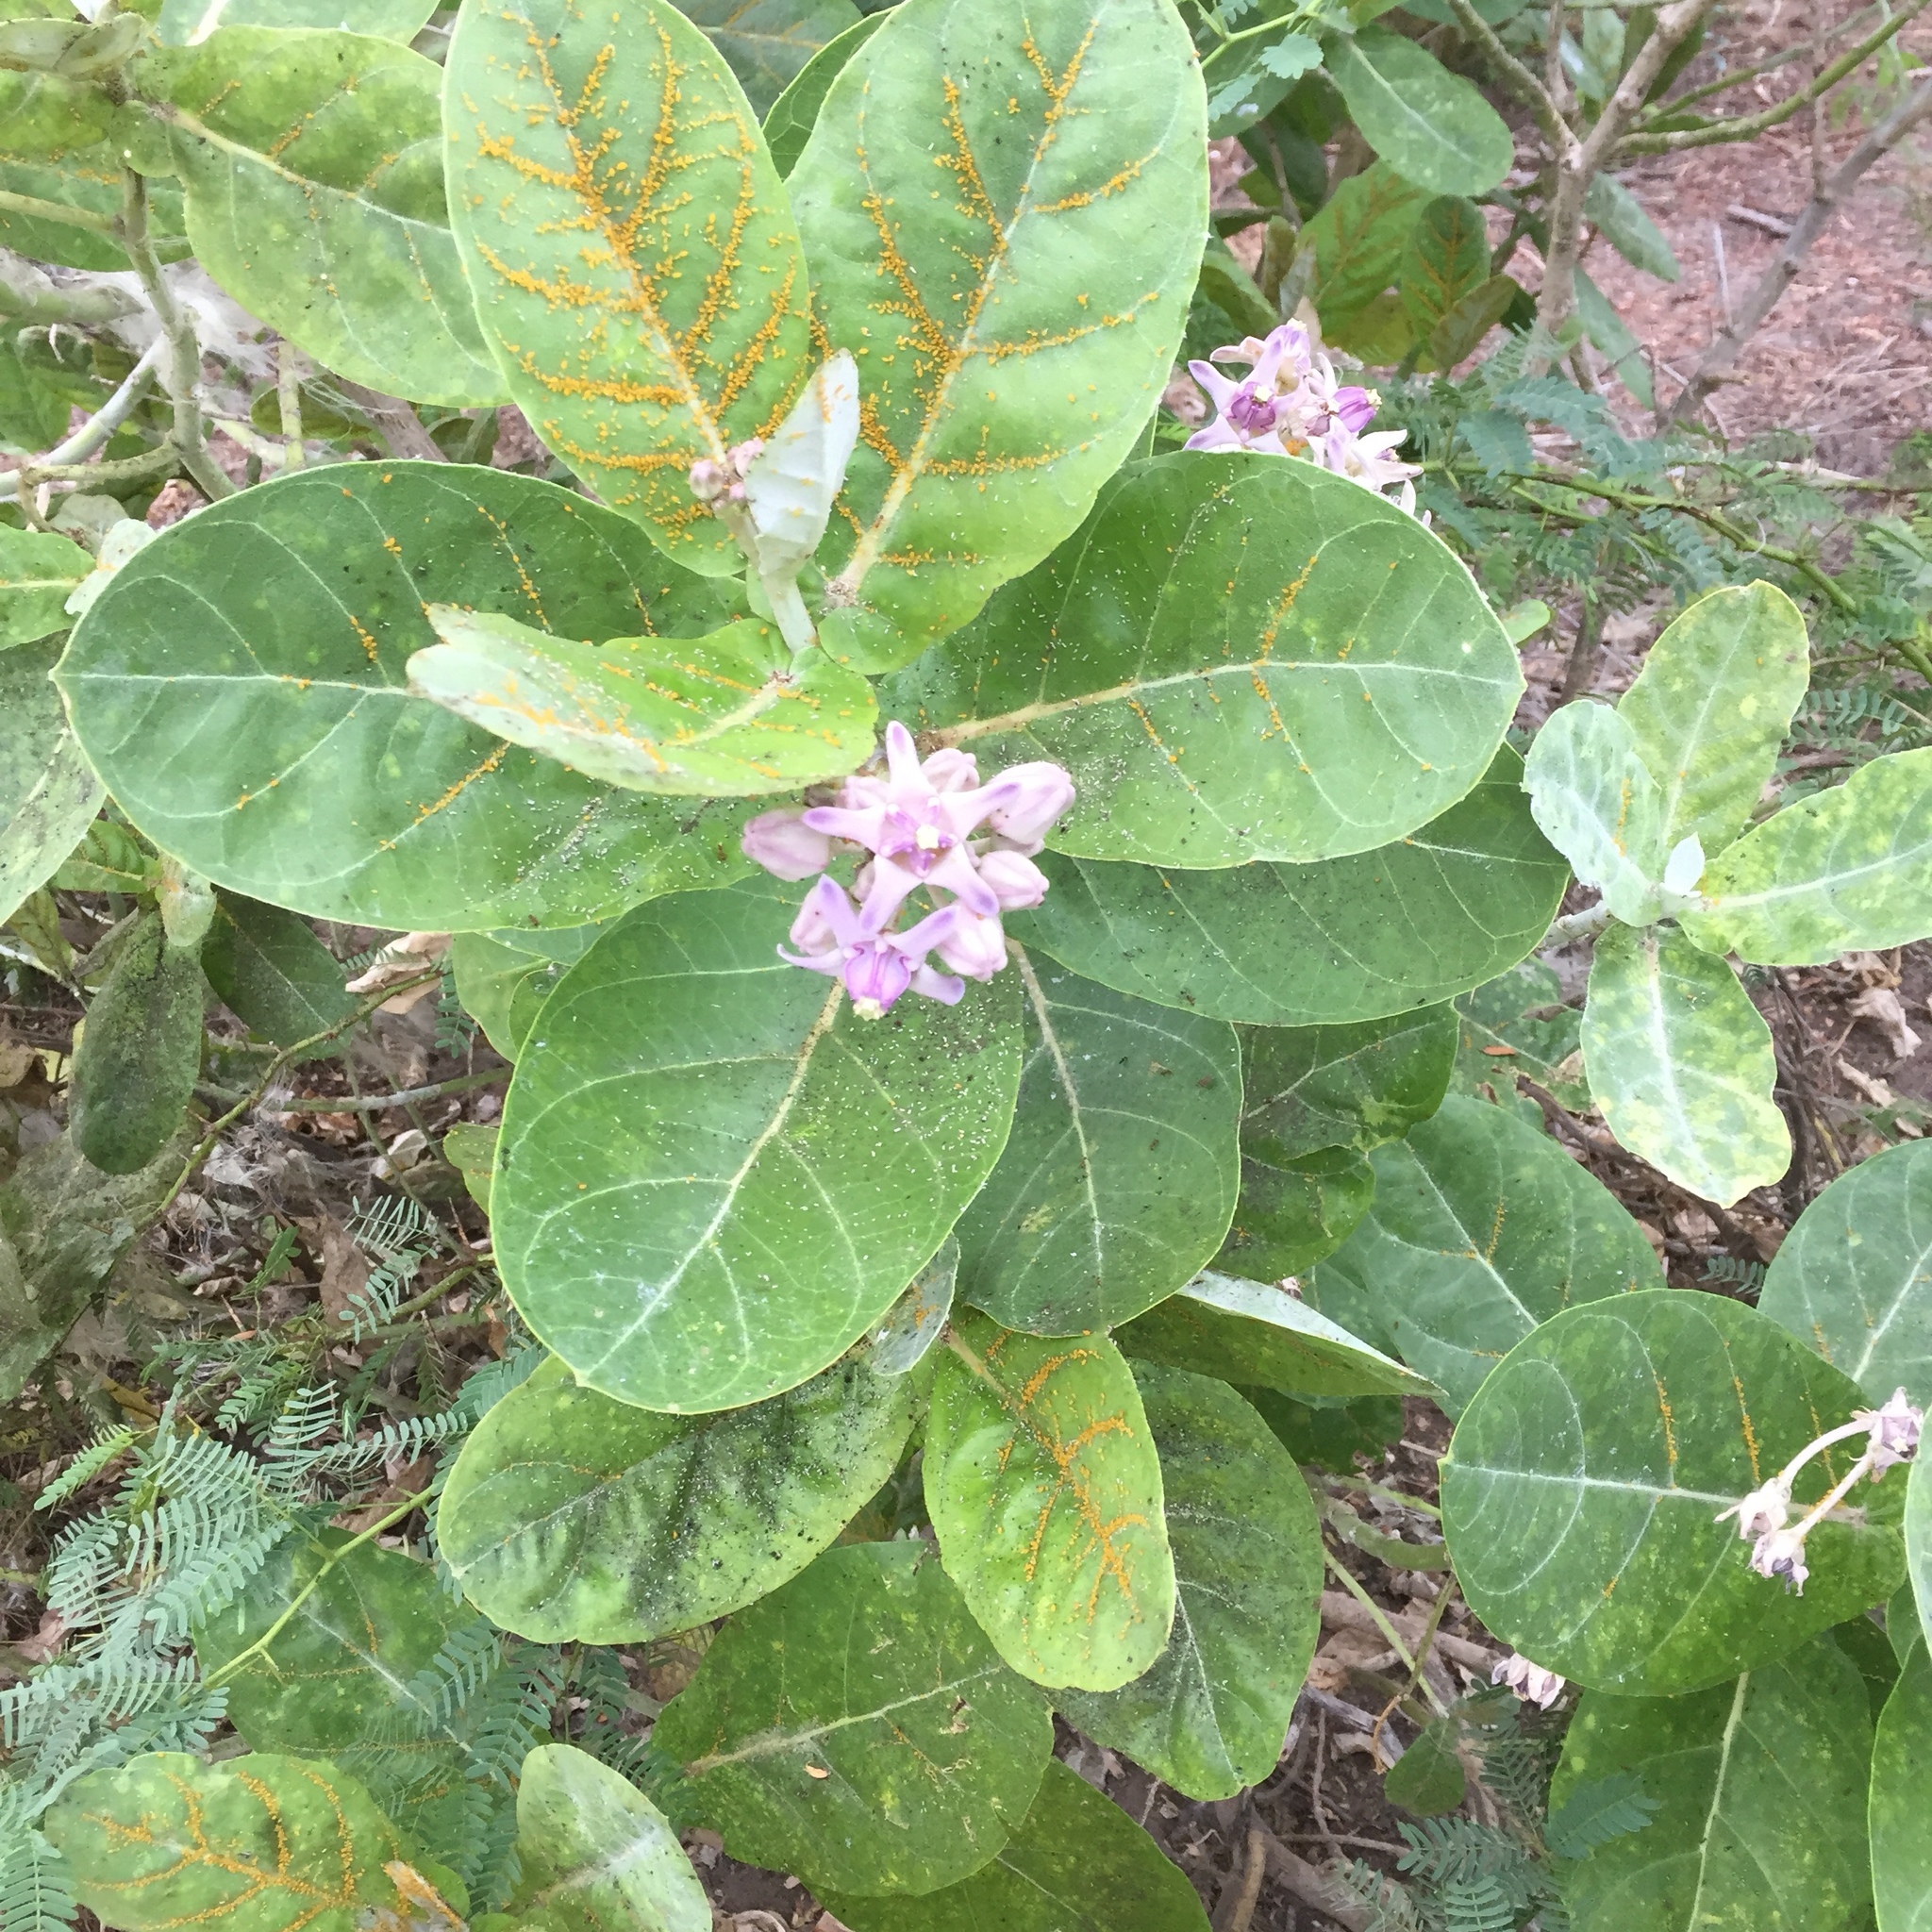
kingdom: Plantae
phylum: Tracheophyta
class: Magnoliopsida
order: Gentianales
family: Apocynaceae
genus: Calotropis
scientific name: Calotropis gigantea
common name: Crown flower
